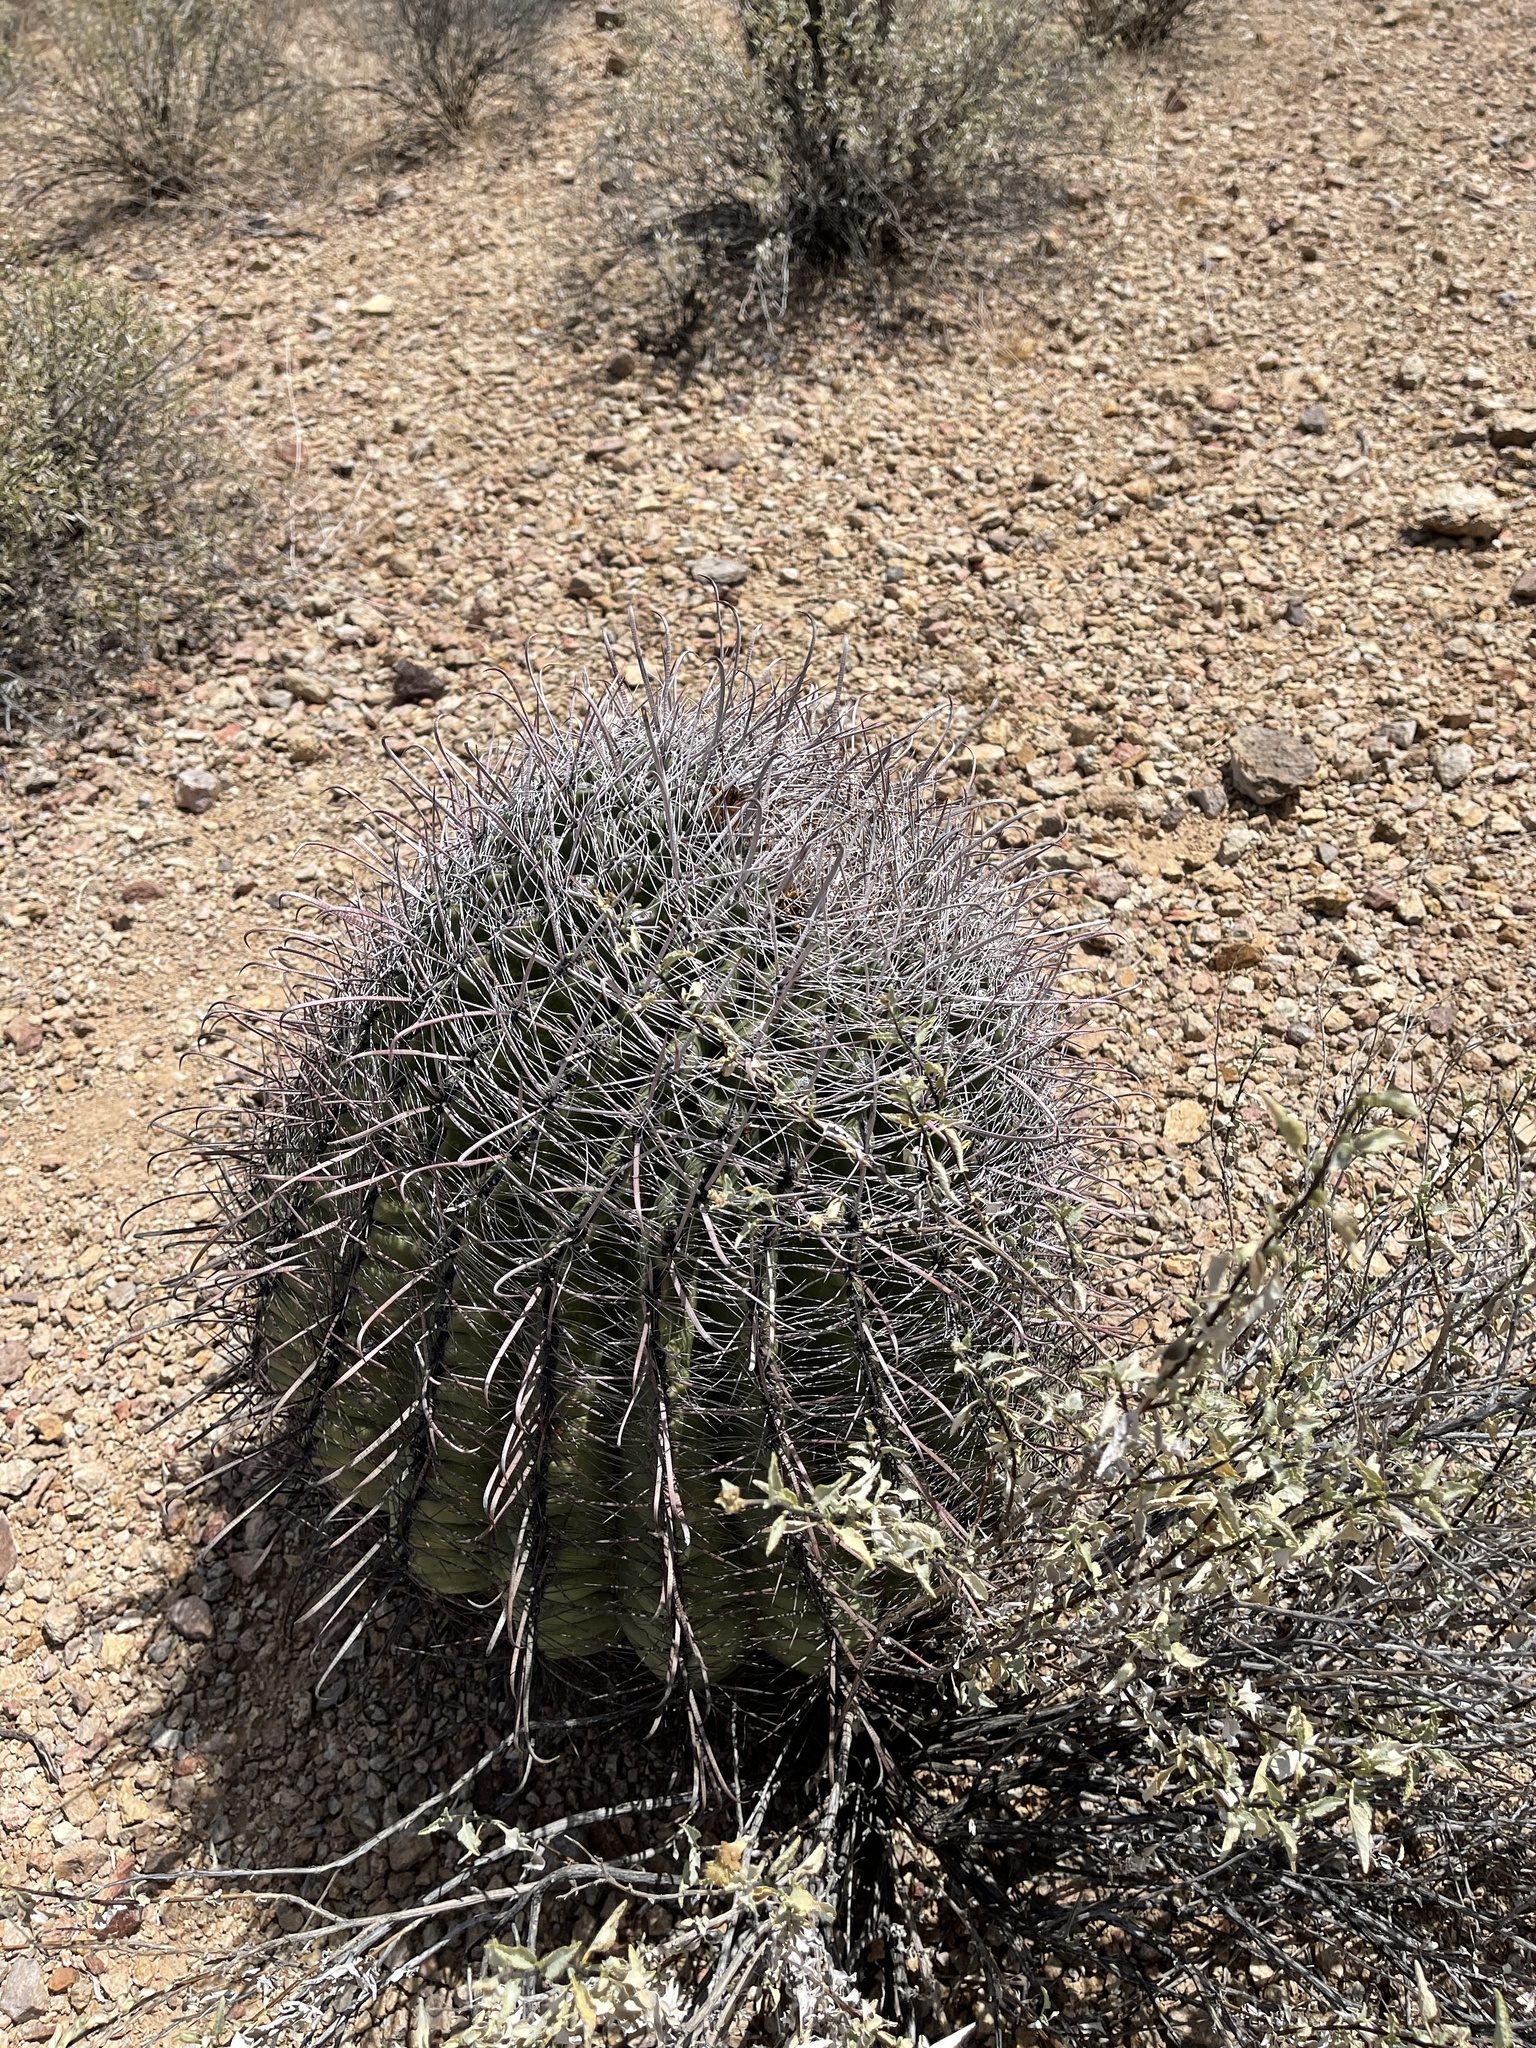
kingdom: Plantae
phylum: Tracheophyta
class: Magnoliopsida
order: Caryophyllales
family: Cactaceae
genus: Ferocactus
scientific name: Ferocactus wislizeni
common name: Candy barrel cactus
